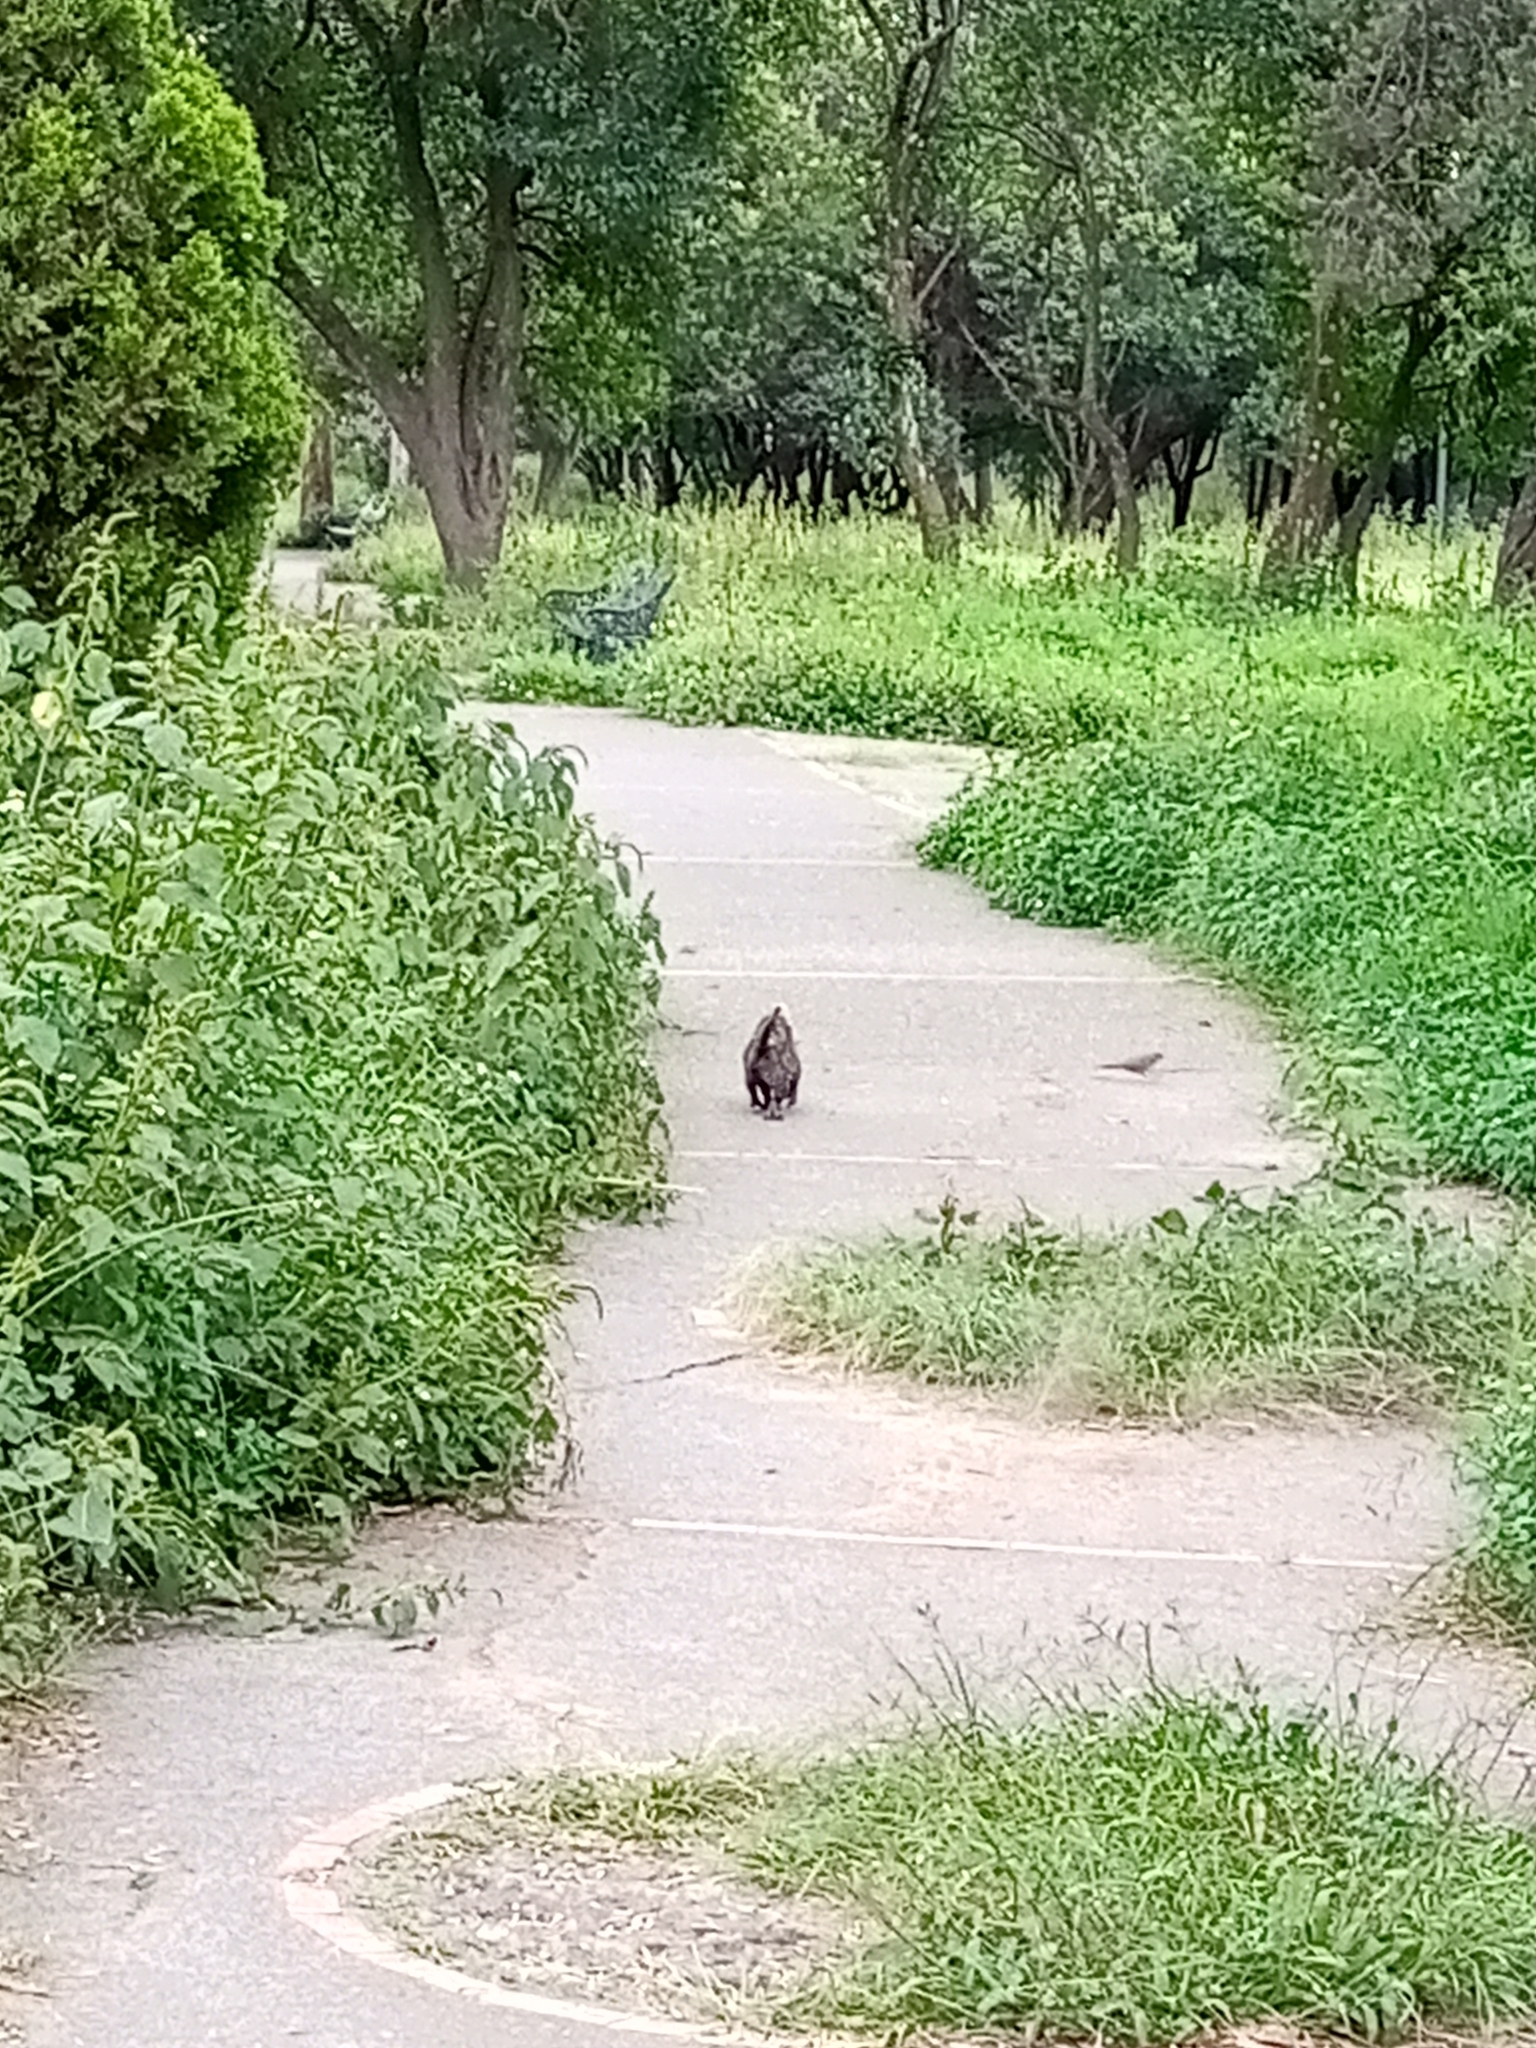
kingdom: Animalia
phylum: Chordata
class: Mammalia
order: Didelphimorphia
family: Didelphidae
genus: Didelphis
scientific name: Didelphis virginiana
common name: Virginia opossum
